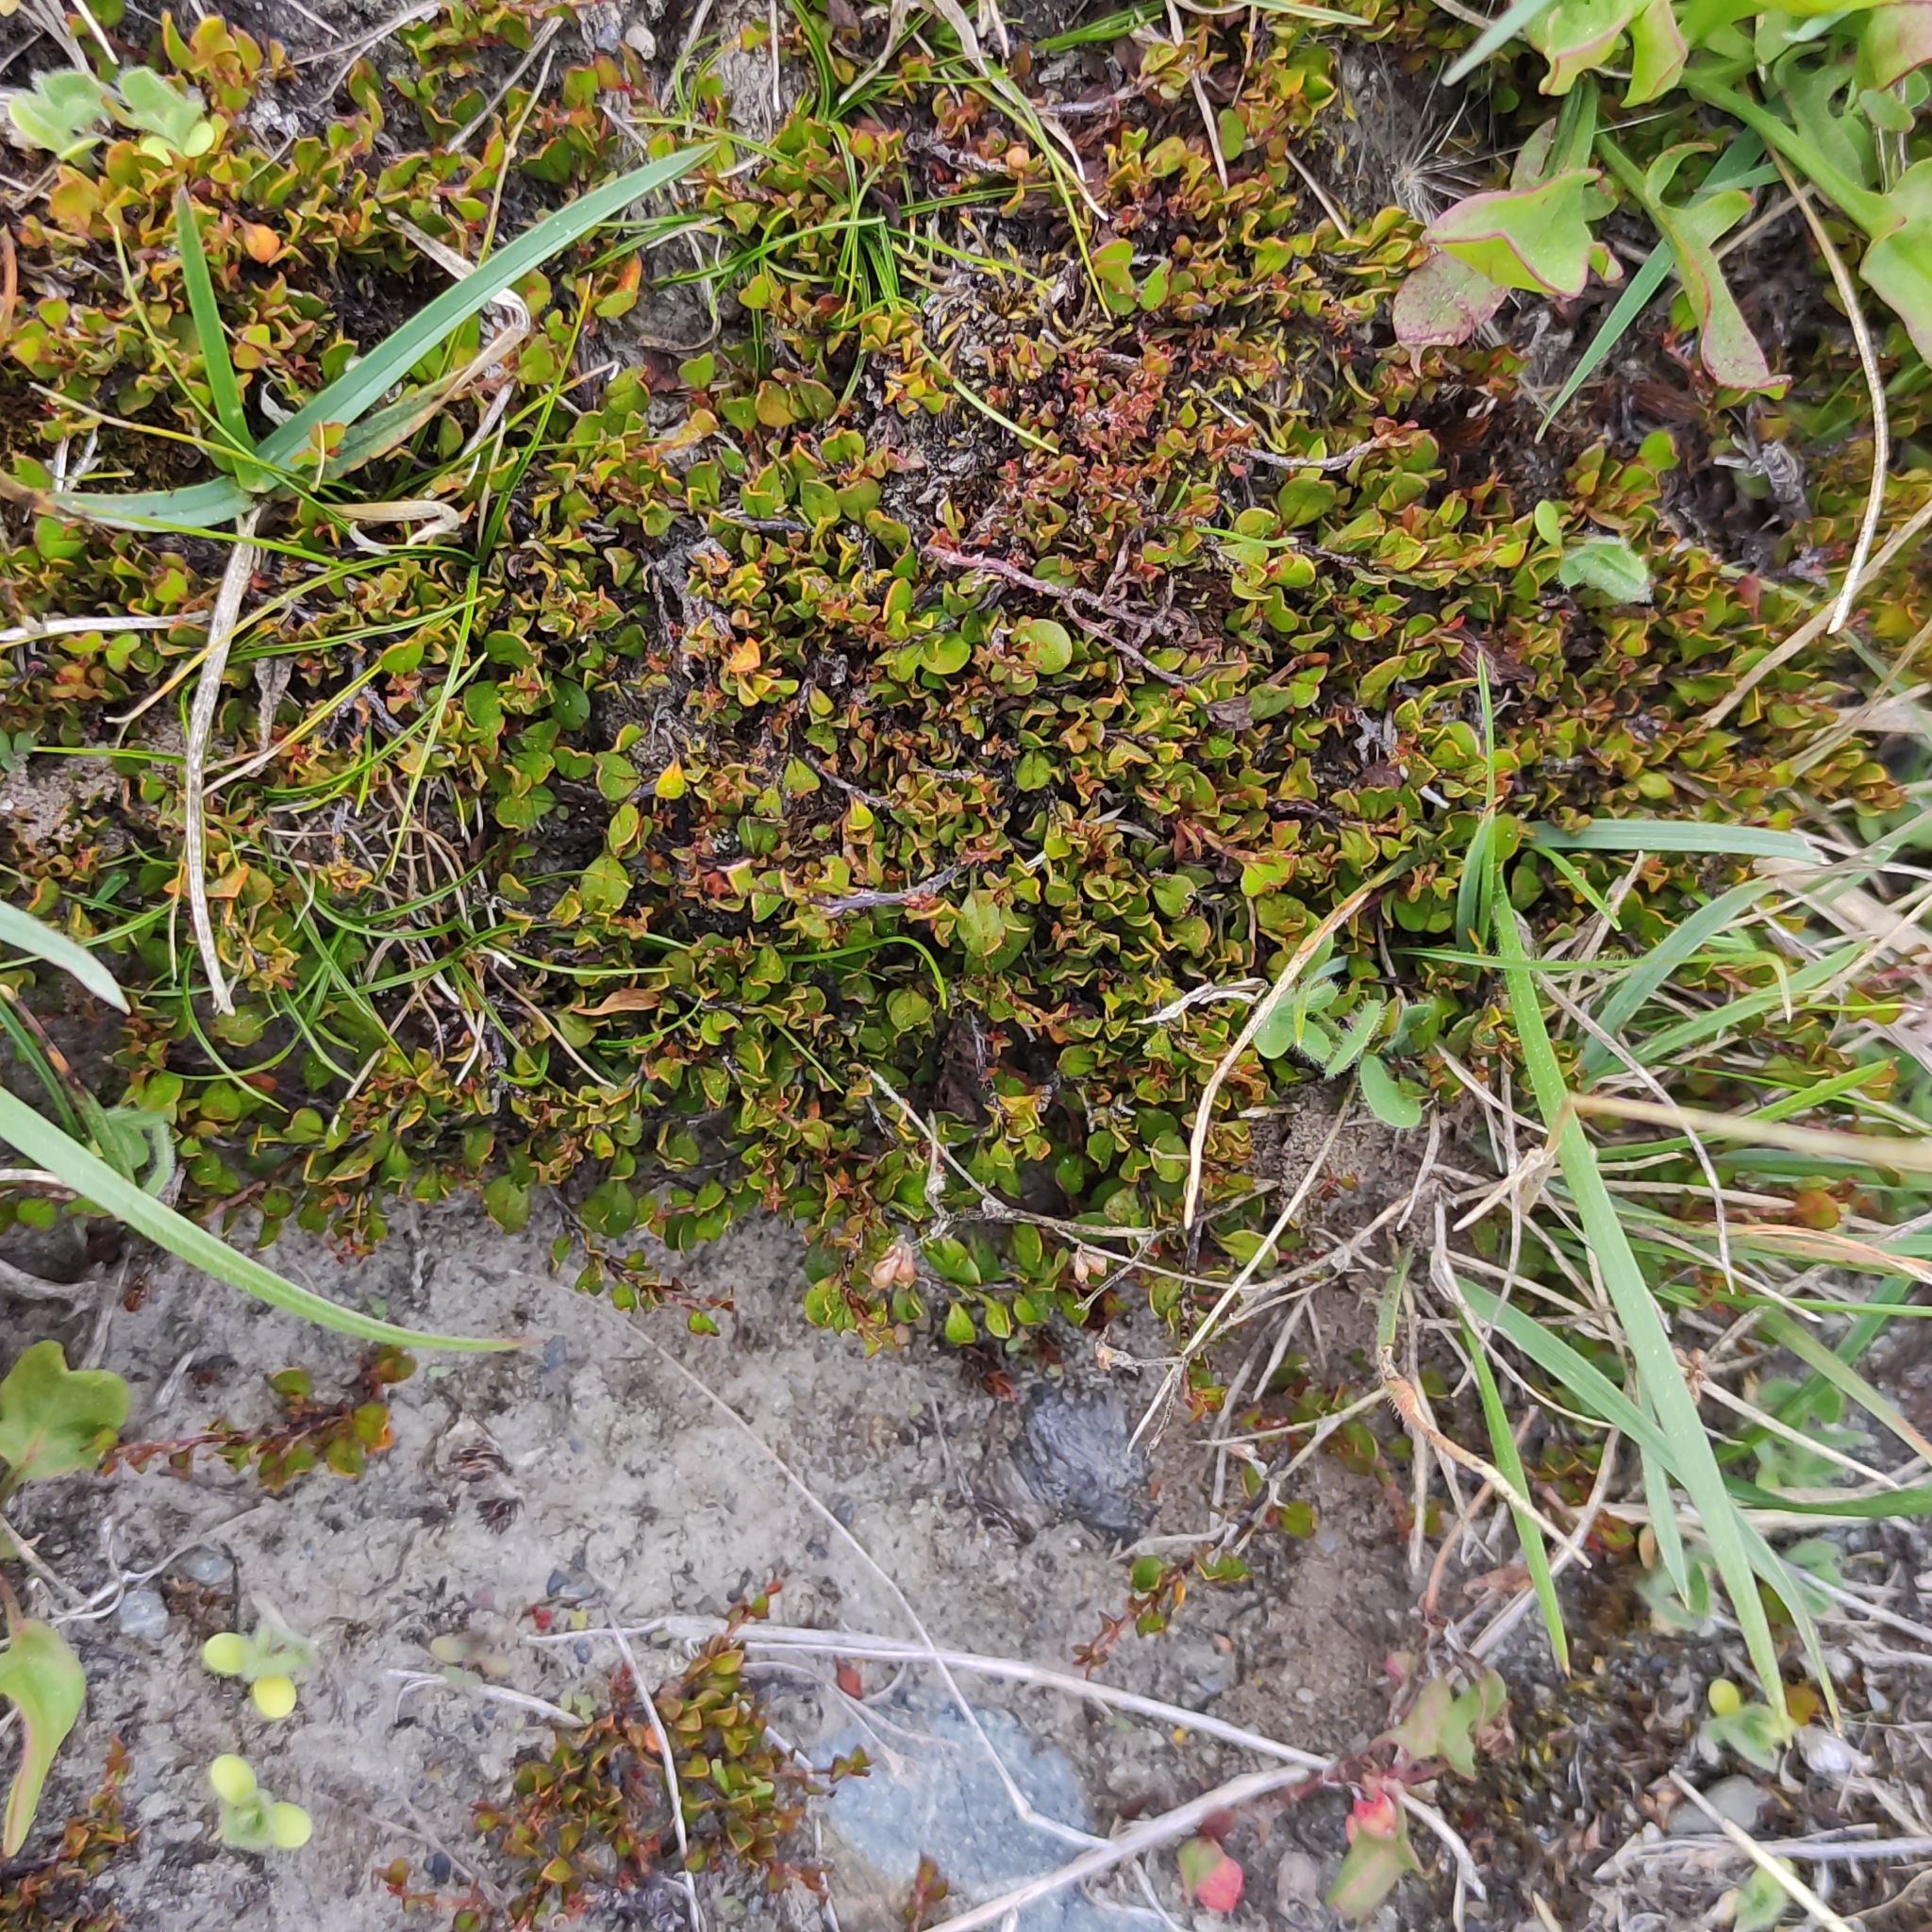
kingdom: Plantae
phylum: Tracheophyta
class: Magnoliopsida
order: Caryophyllales
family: Polygonaceae
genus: Muehlenbeckia
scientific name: Muehlenbeckia axillaris
